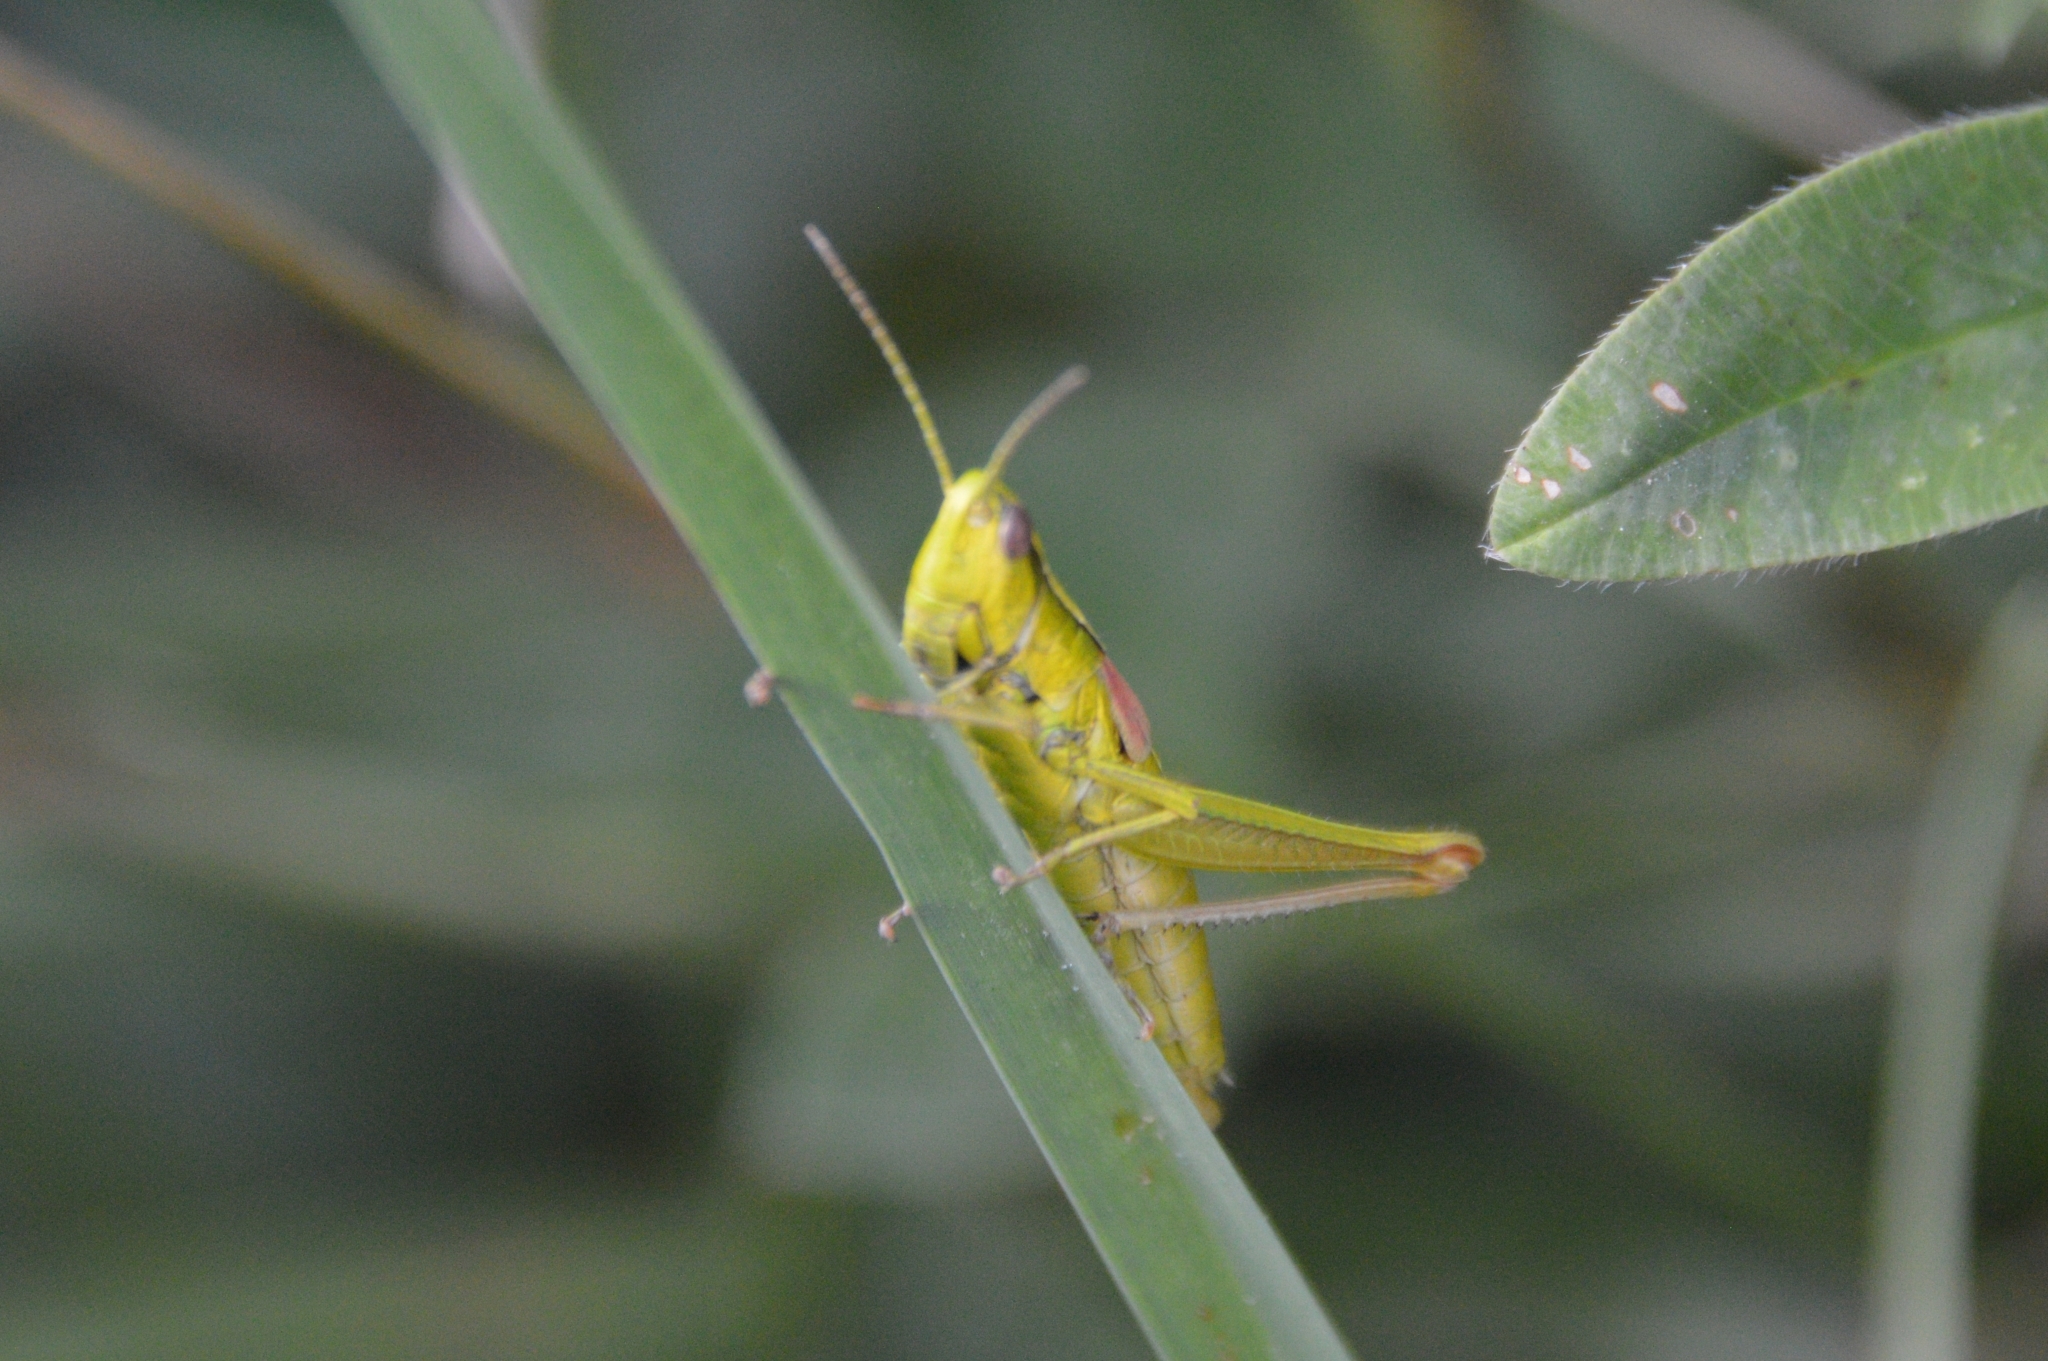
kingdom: Animalia
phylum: Arthropoda
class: Insecta
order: Orthoptera
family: Acrididae
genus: Euthystira
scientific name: Euthystira brachyptera
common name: Small gold grasshopper
